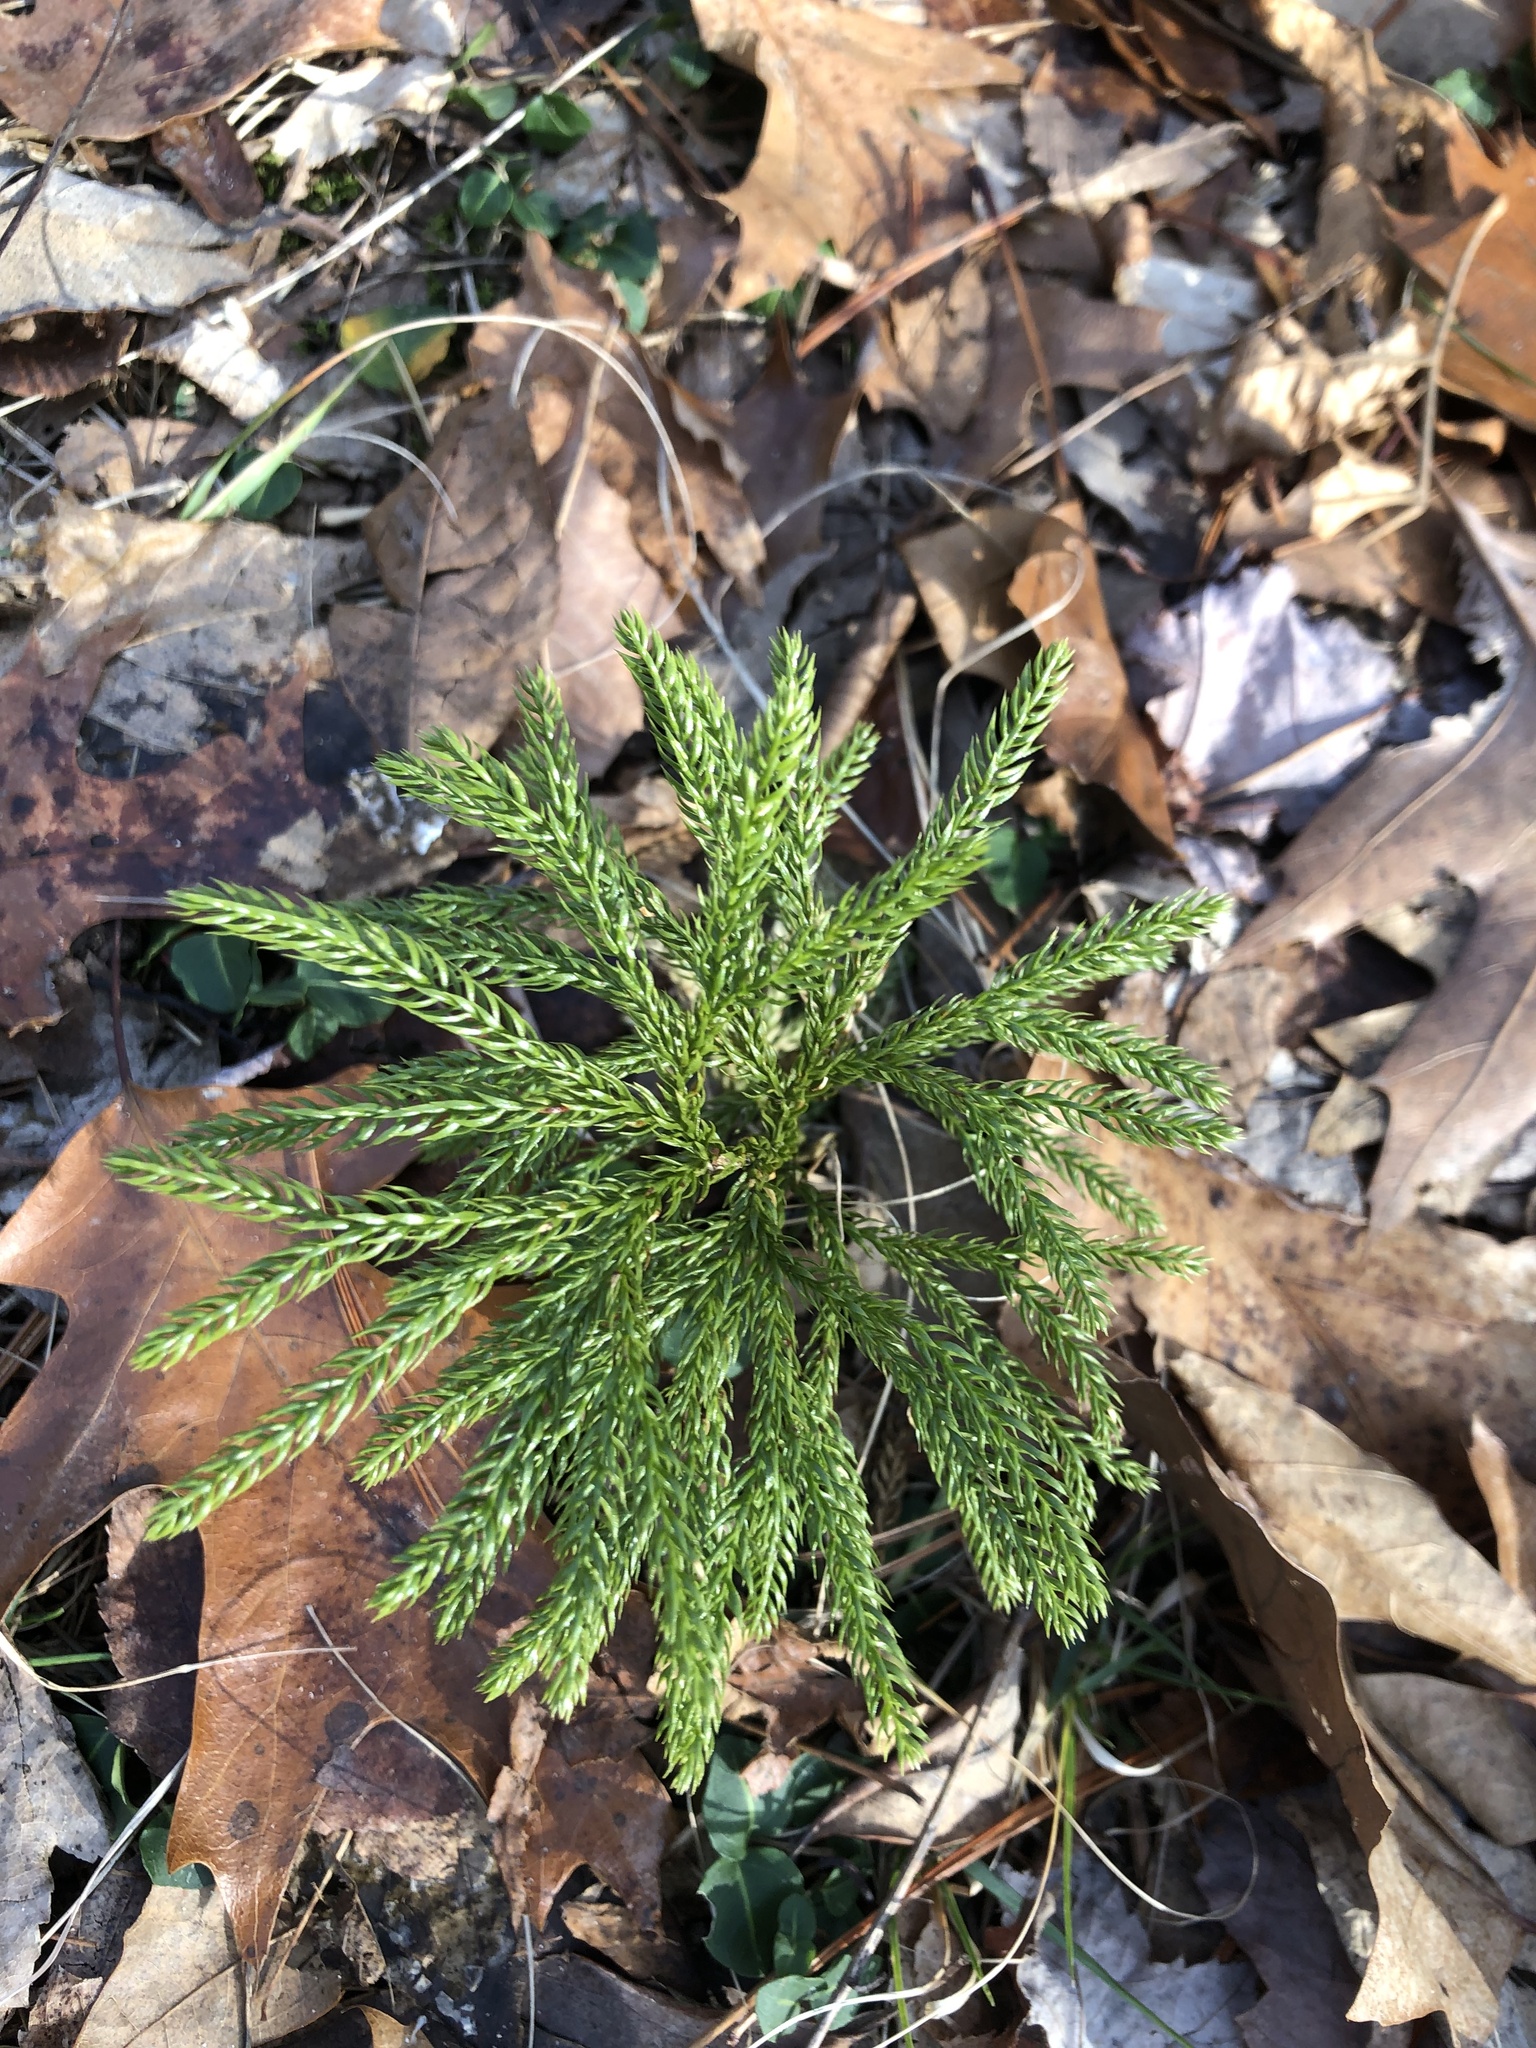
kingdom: Plantae
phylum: Tracheophyta
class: Lycopodiopsida
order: Lycopodiales
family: Lycopodiaceae
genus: Dendrolycopodium
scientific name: Dendrolycopodium hickeyi
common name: Hickey's clubmoss
